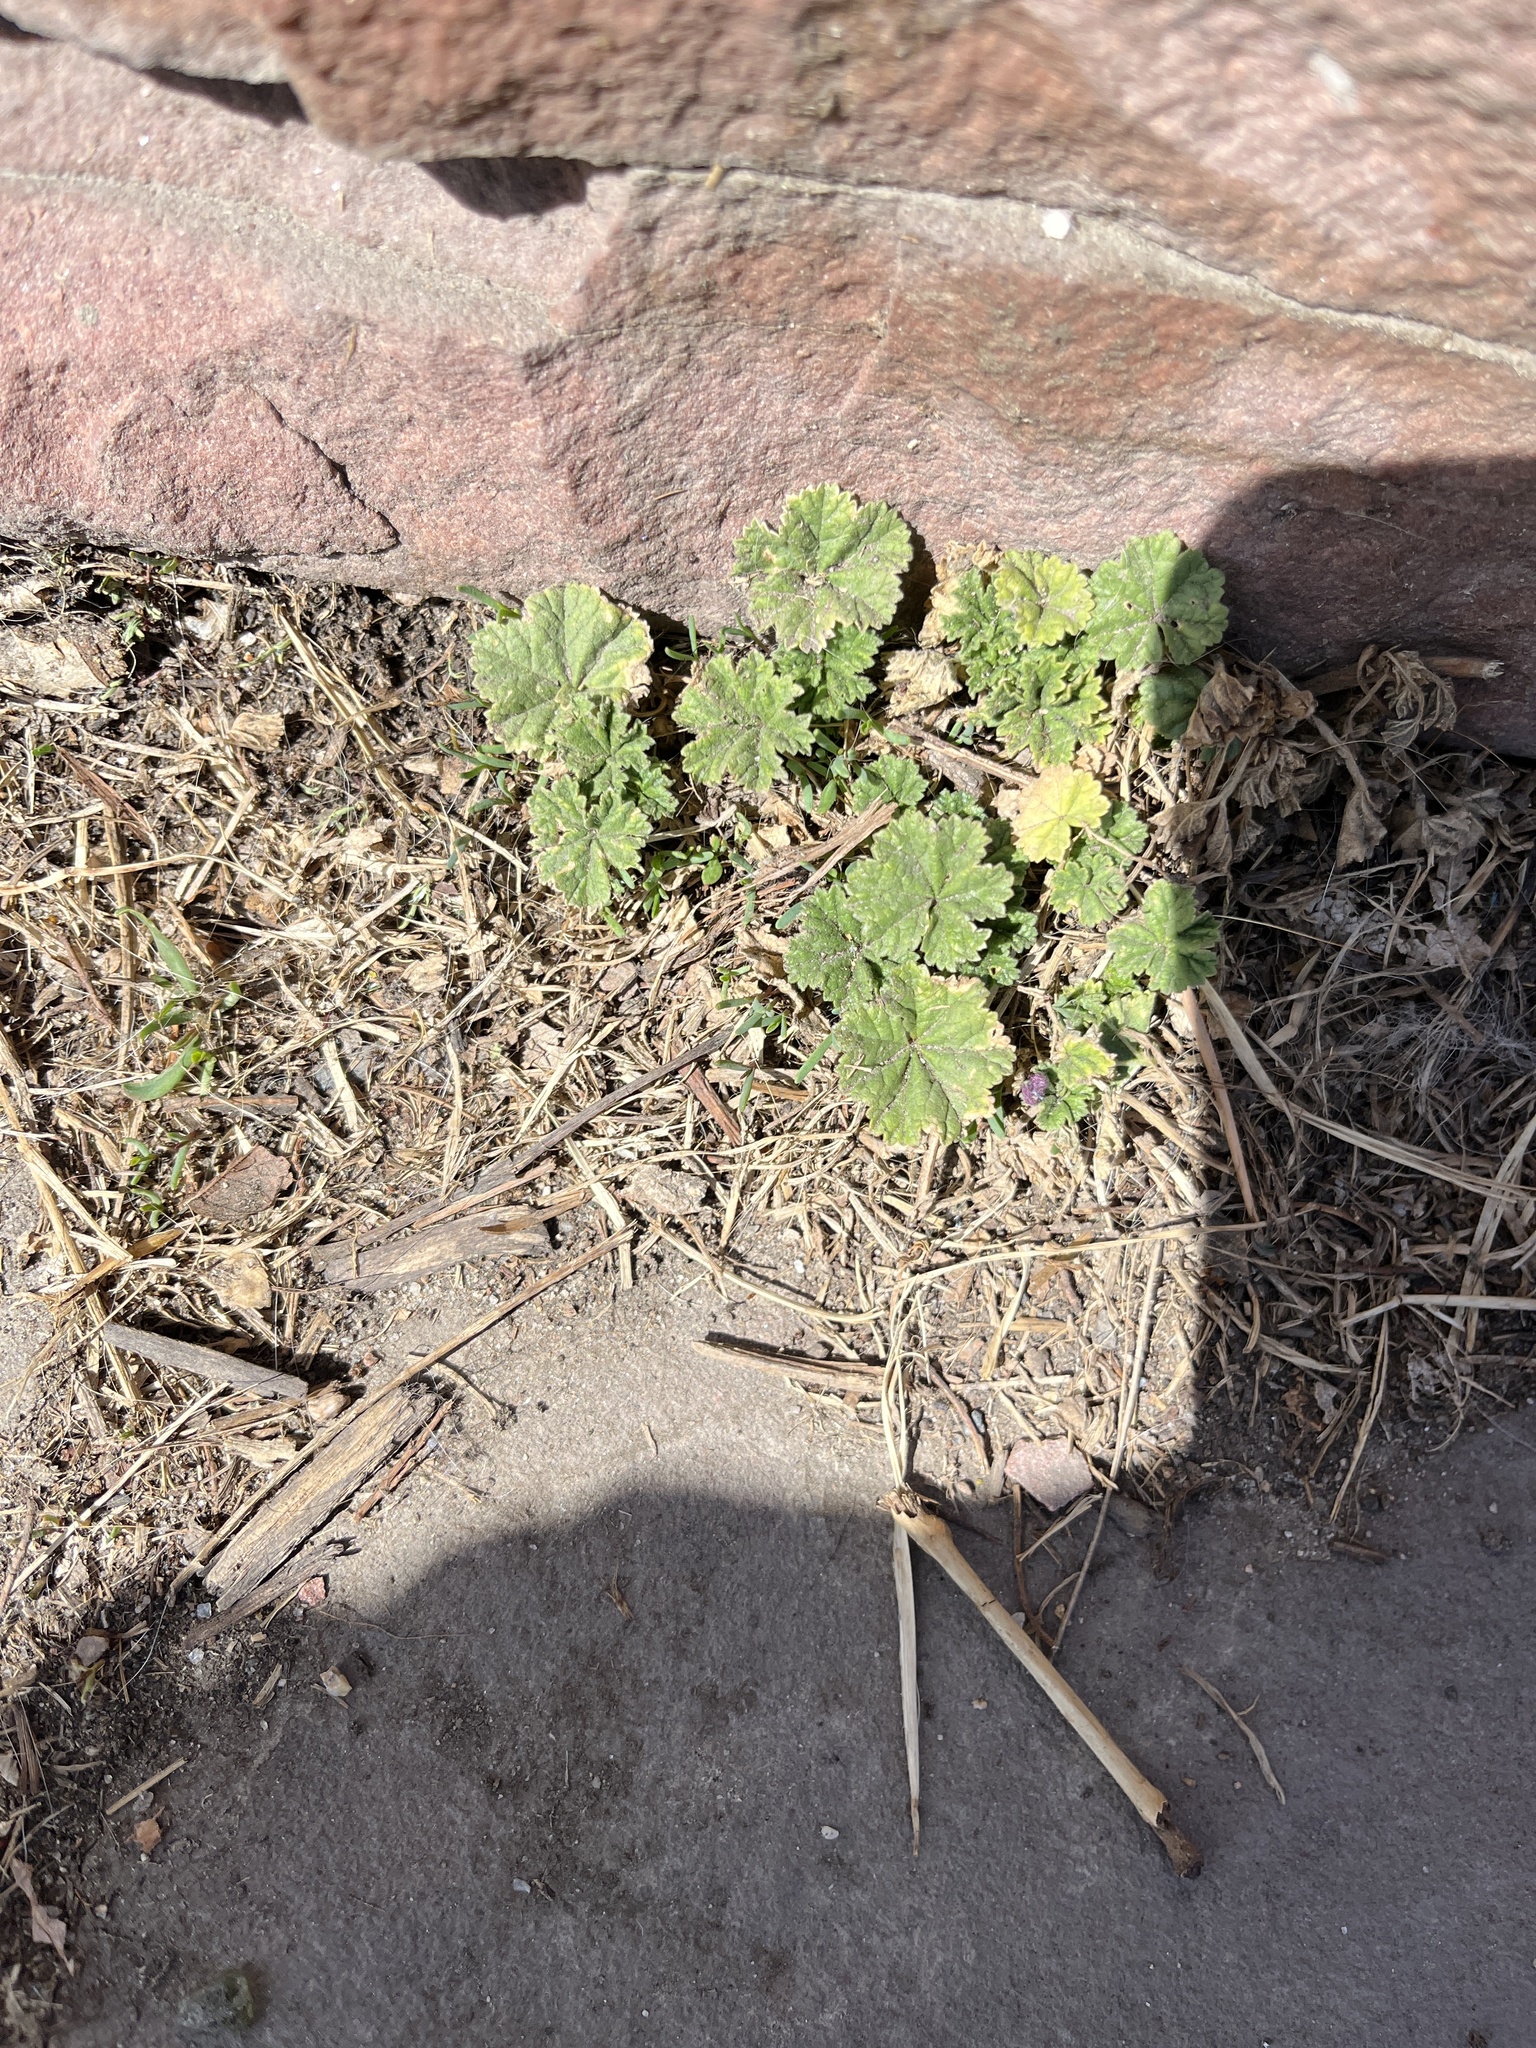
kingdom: Plantae
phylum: Tracheophyta
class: Magnoliopsida
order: Malvales
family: Malvaceae
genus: Malva
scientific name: Malva neglecta
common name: Common mallow
